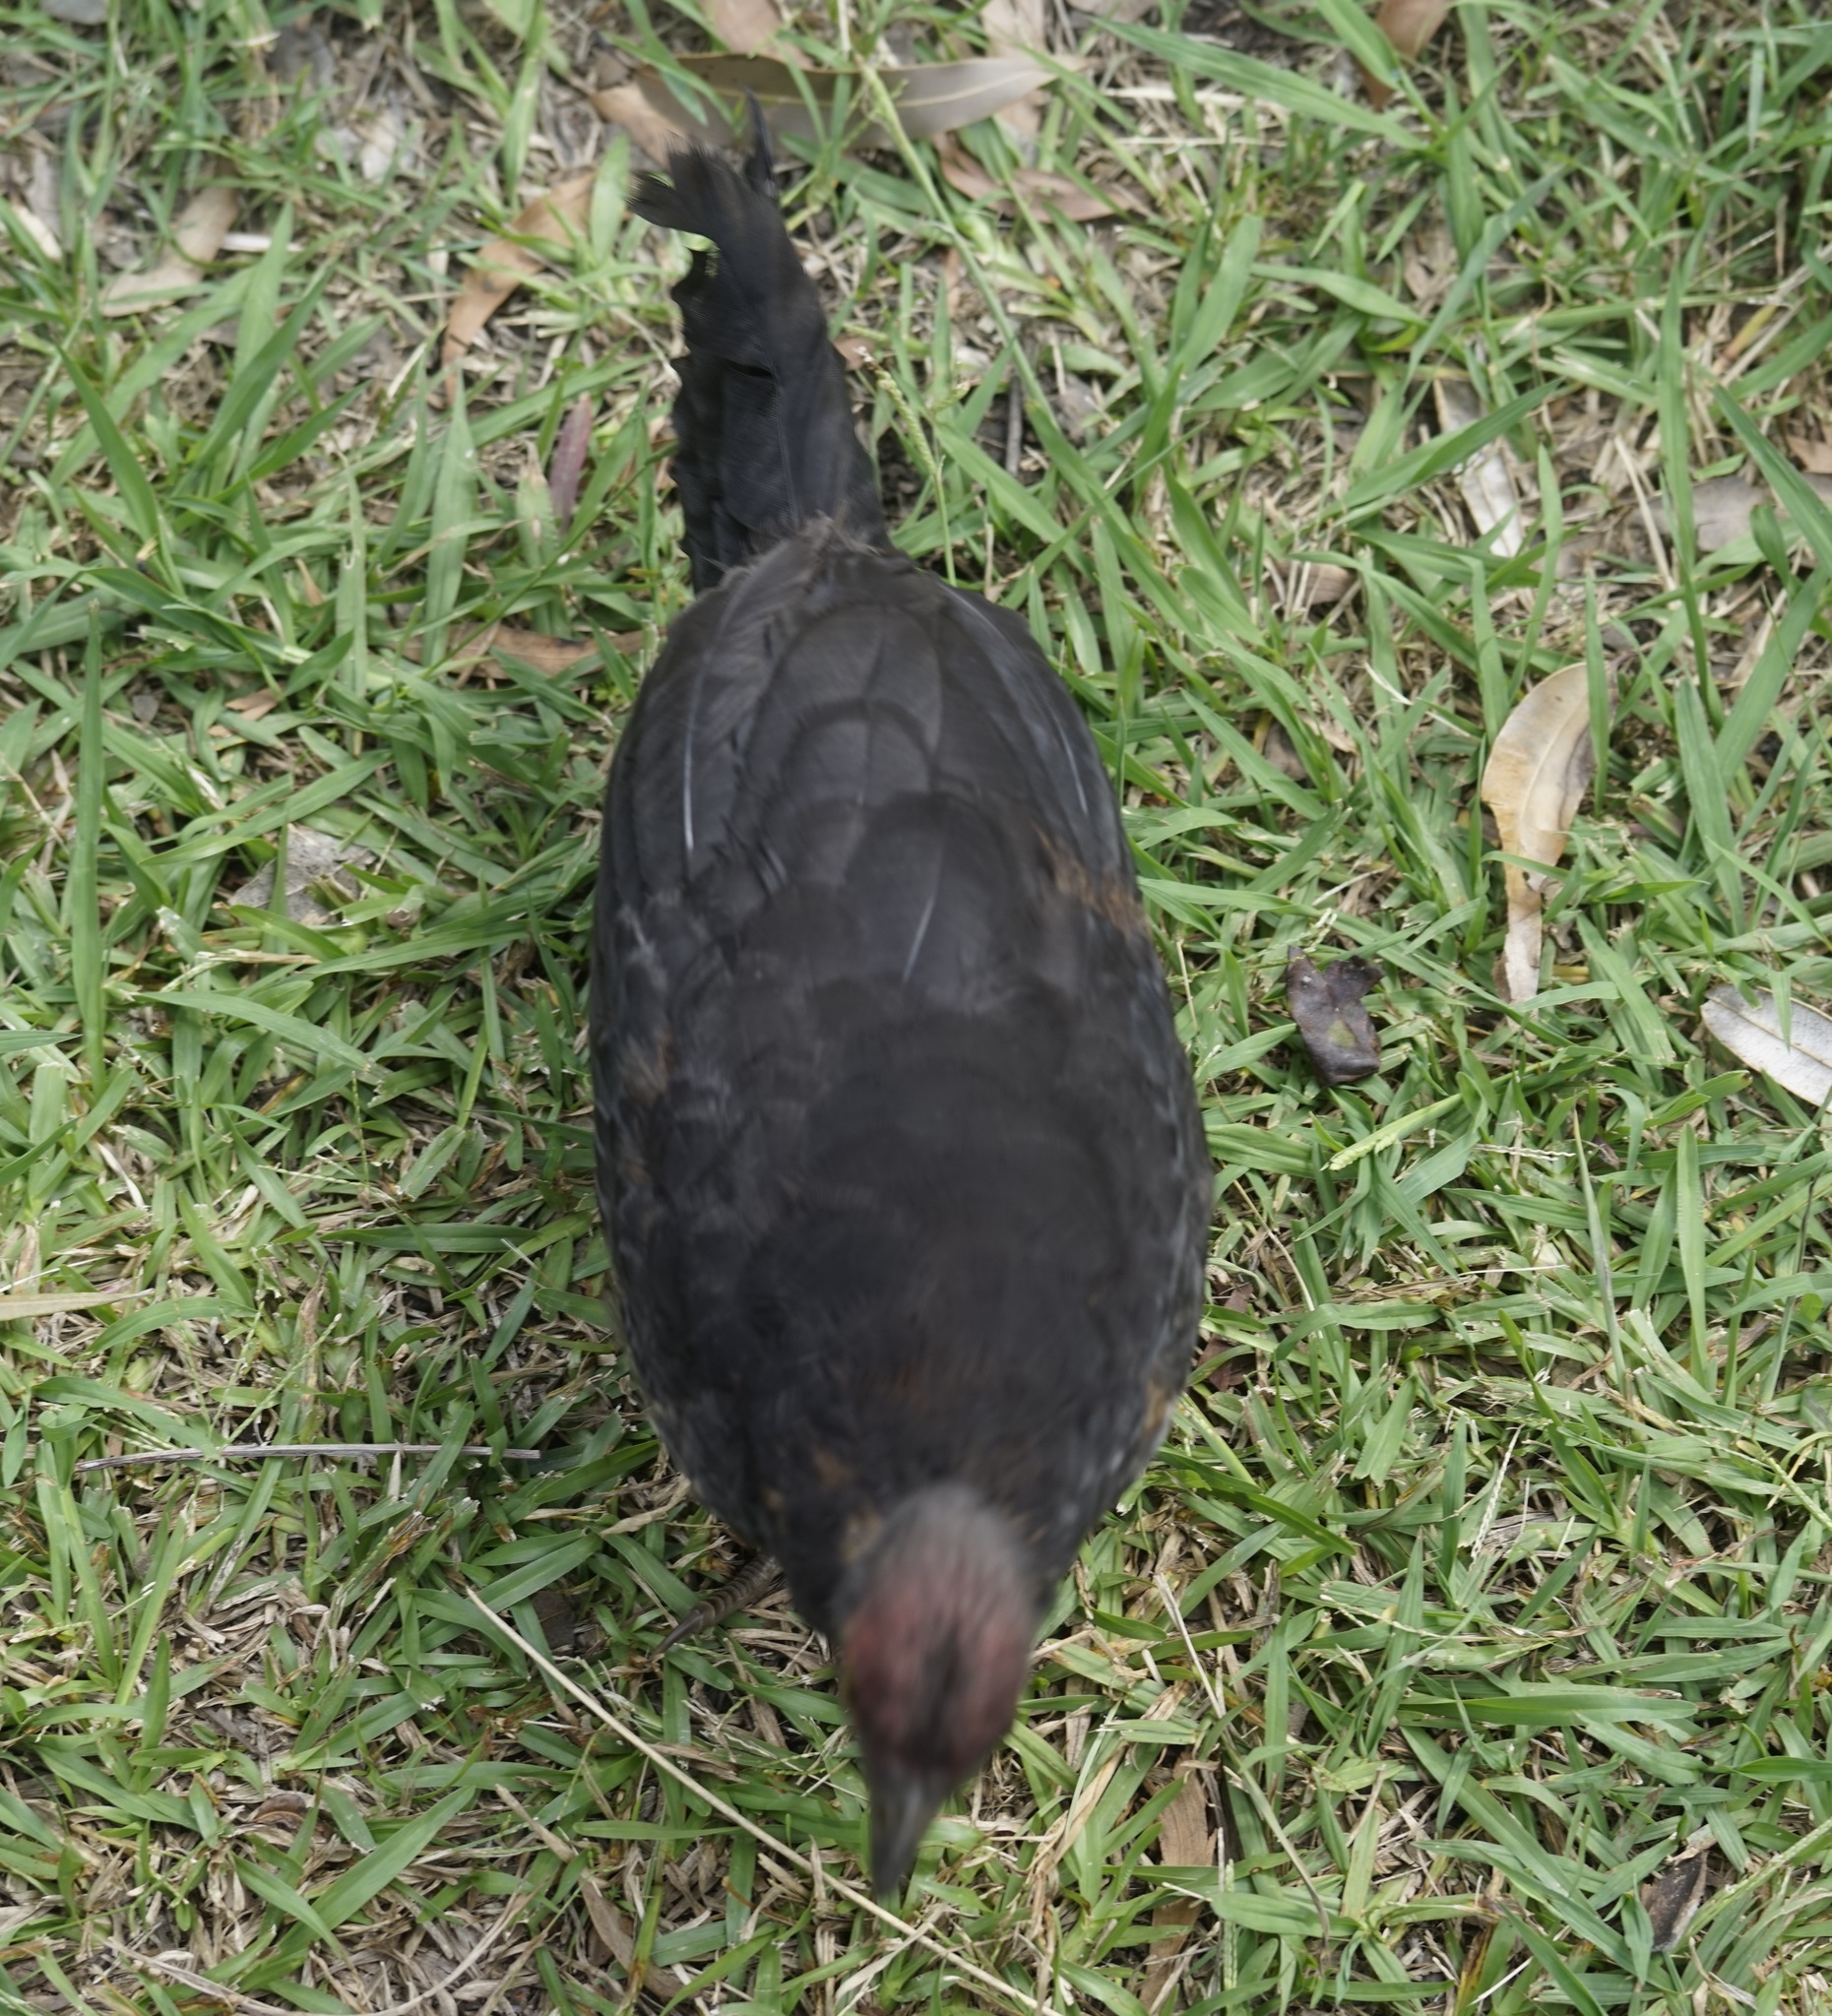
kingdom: Animalia
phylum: Chordata
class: Aves
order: Galliformes
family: Megapodiidae
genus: Alectura
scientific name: Alectura lathami
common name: Australian brushturkey
